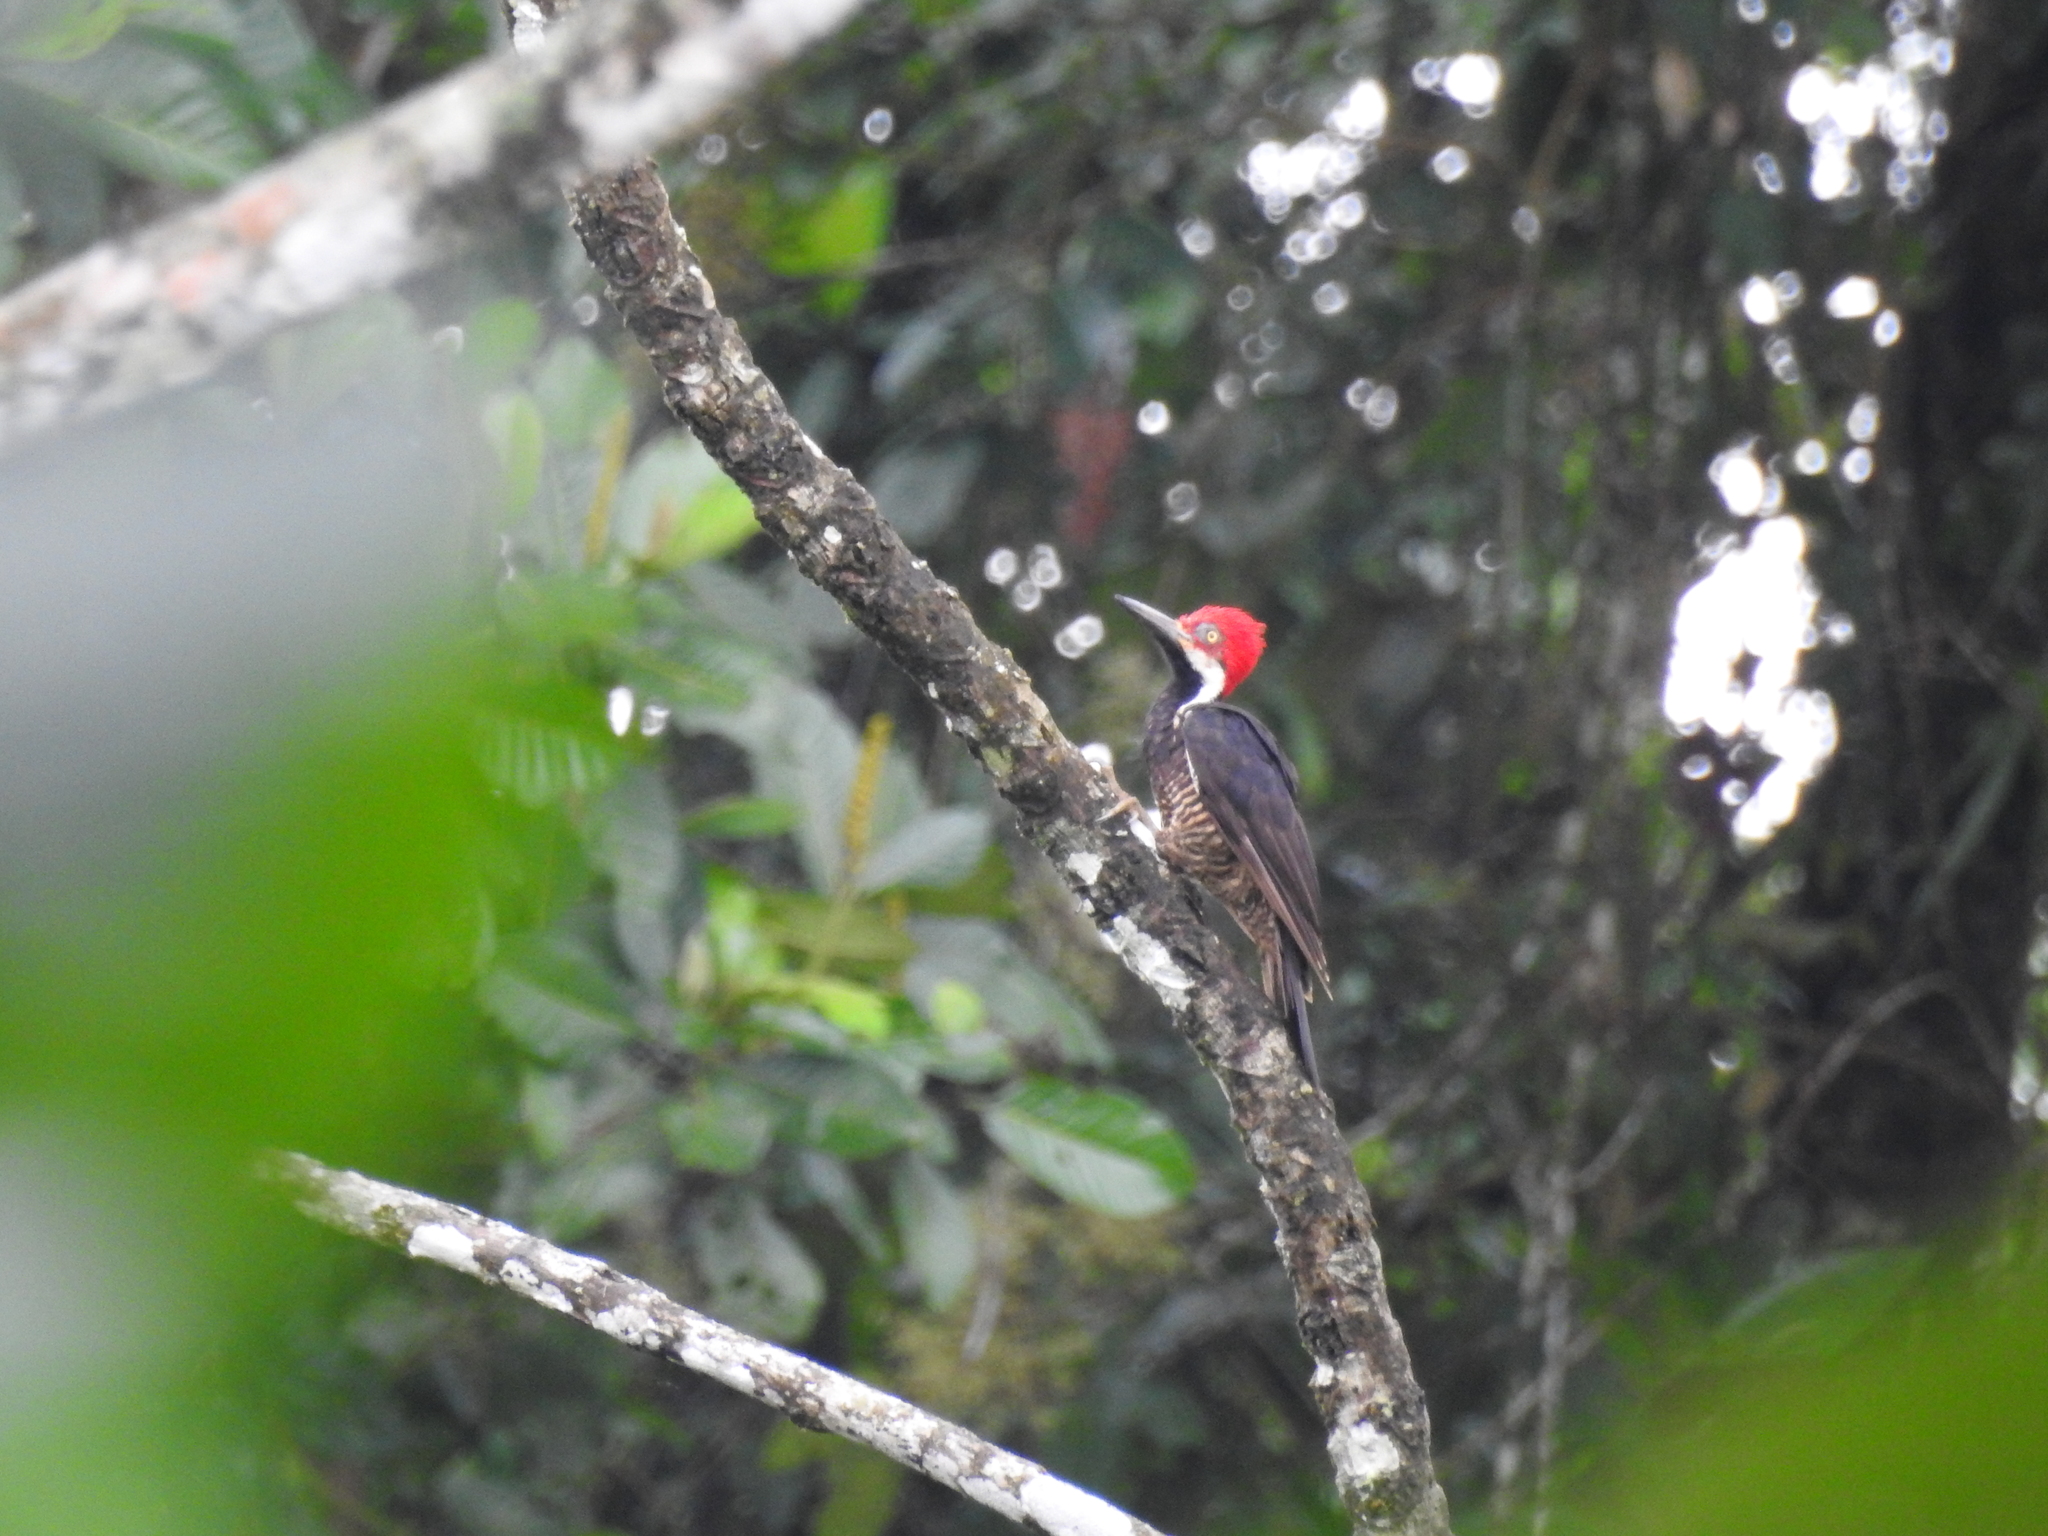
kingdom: Animalia
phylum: Chordata
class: Aves
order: Piciformes
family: Picidae
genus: Campephilus
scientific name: Campephilus gayaquilensis
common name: Guayaquil woodpecker
